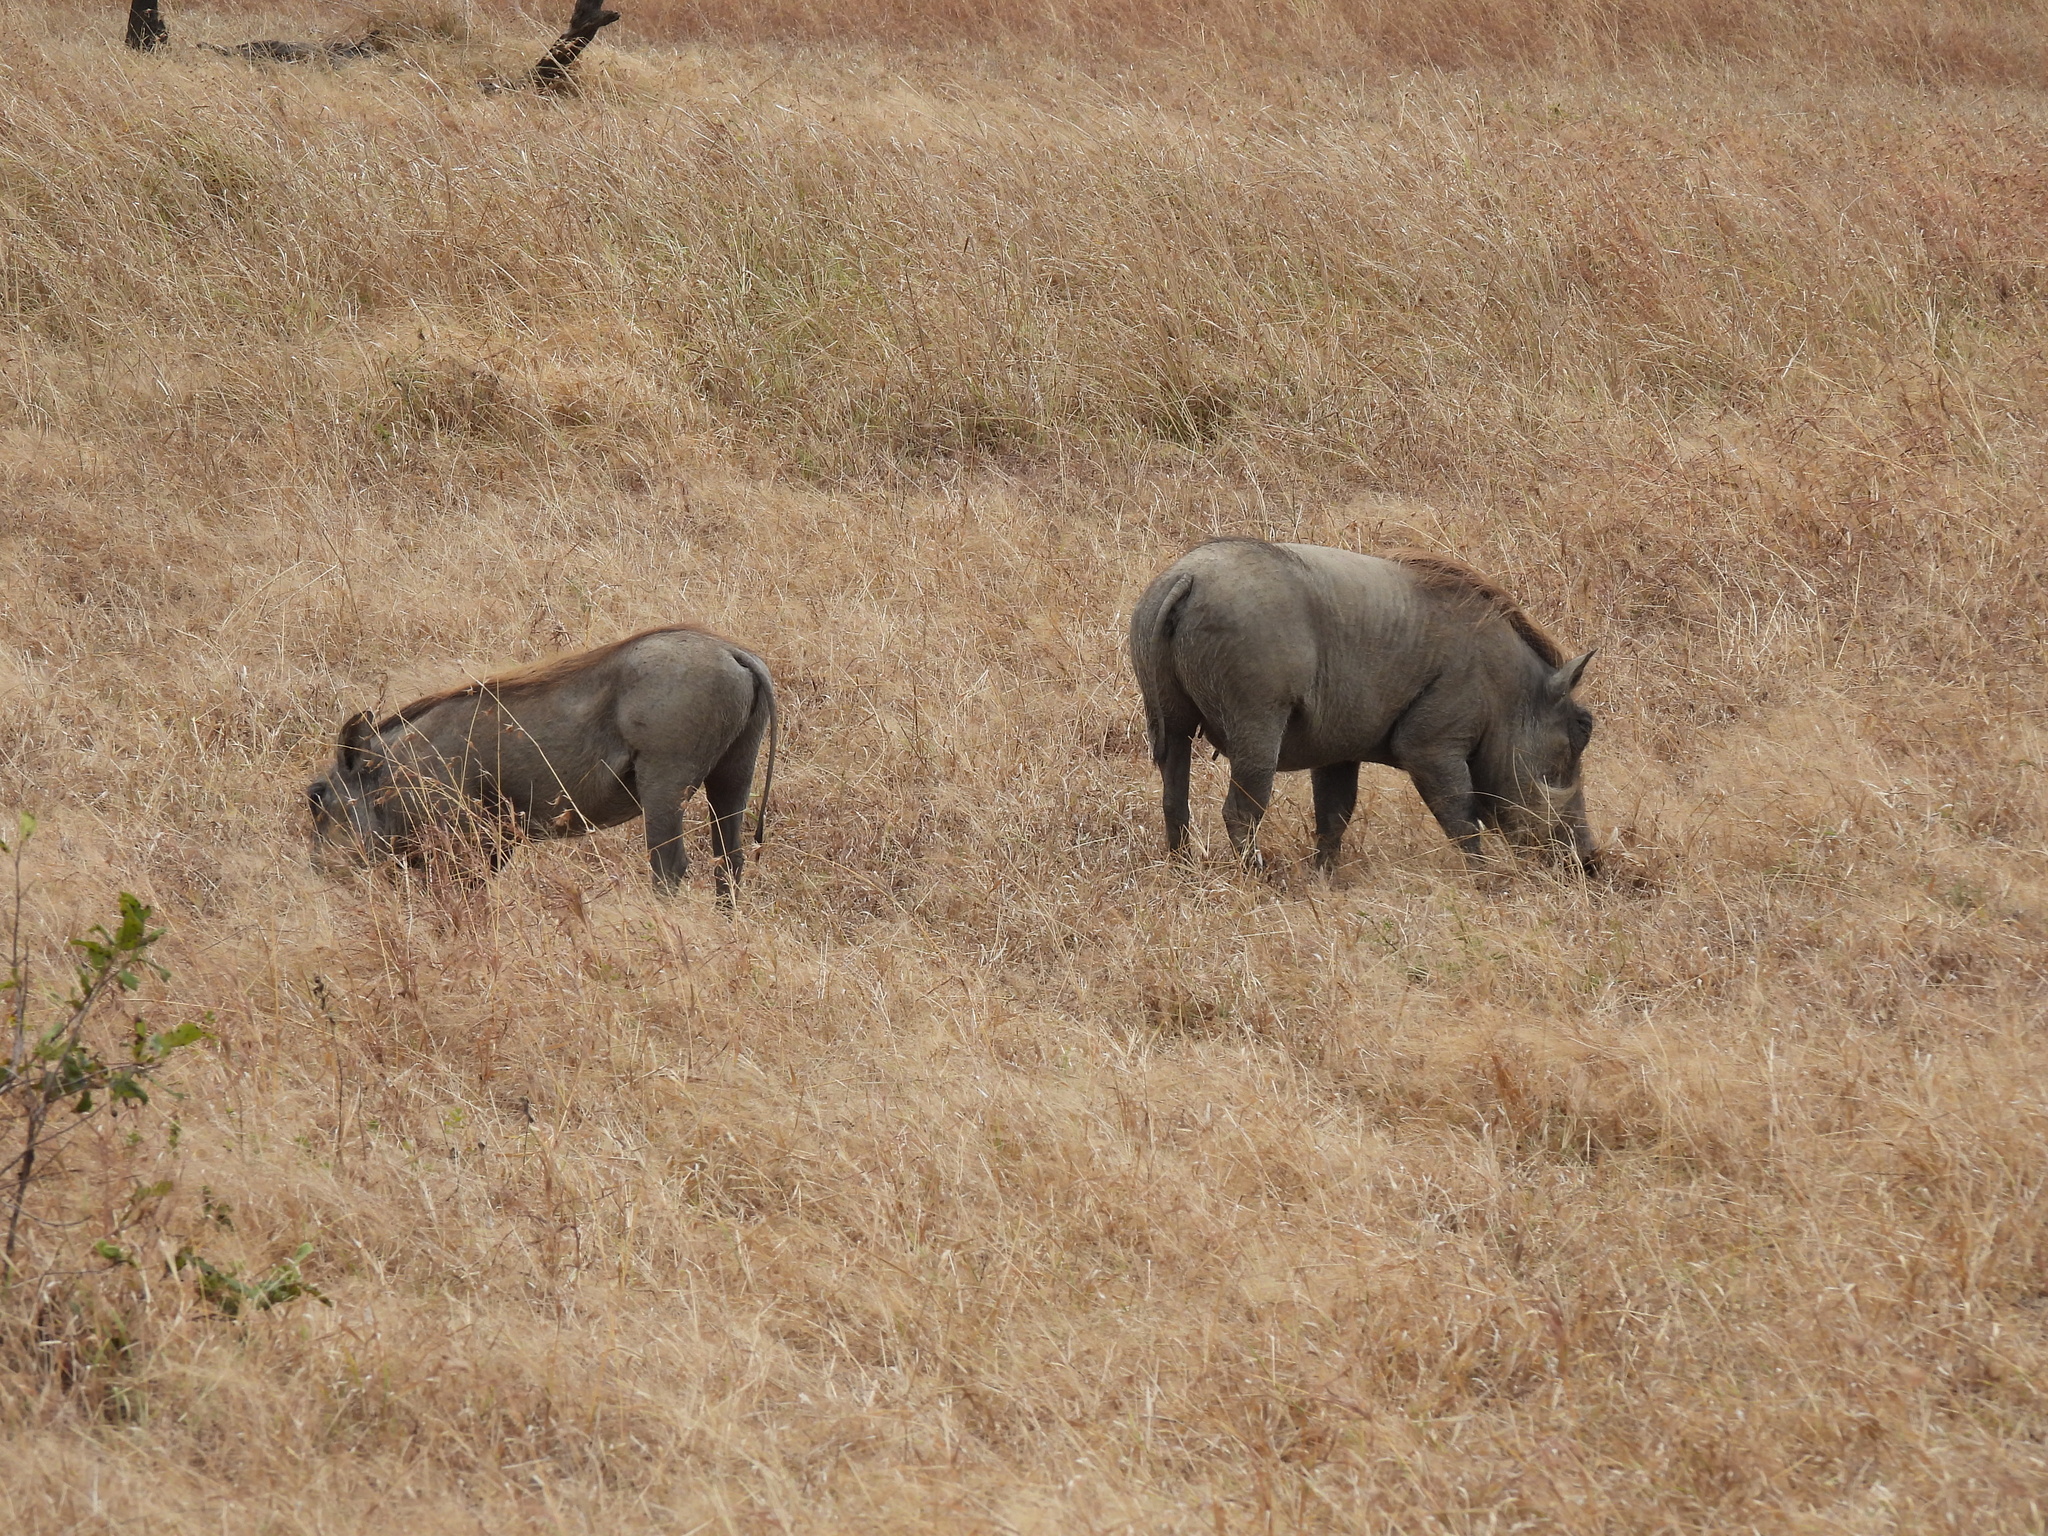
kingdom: Animalia
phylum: Chordata
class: Mammalia
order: Artiodactyla
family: Suidae
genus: Phacochoerus
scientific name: Phacochoerus africanus
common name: Common warthog
